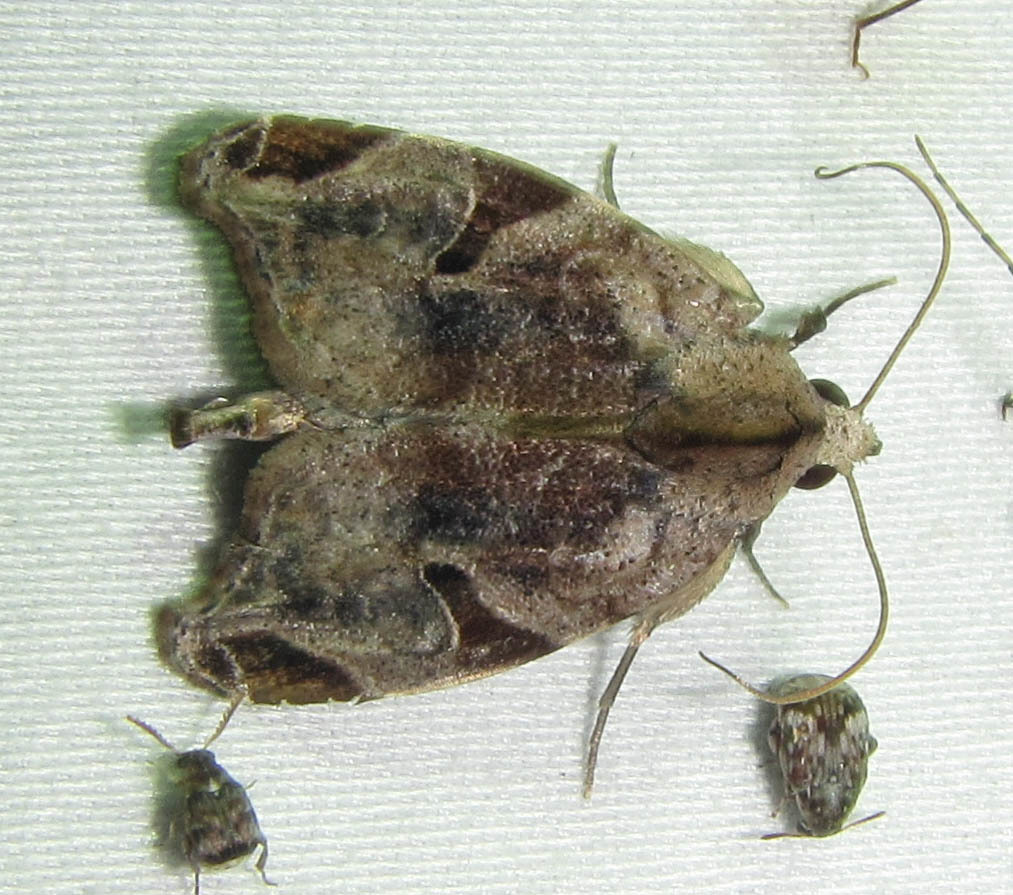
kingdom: Animalia
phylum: Arthropoda
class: Insecta
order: Lepidoptera
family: Noctuidae
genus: Androlymnia
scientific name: Androlymnia torsivena
